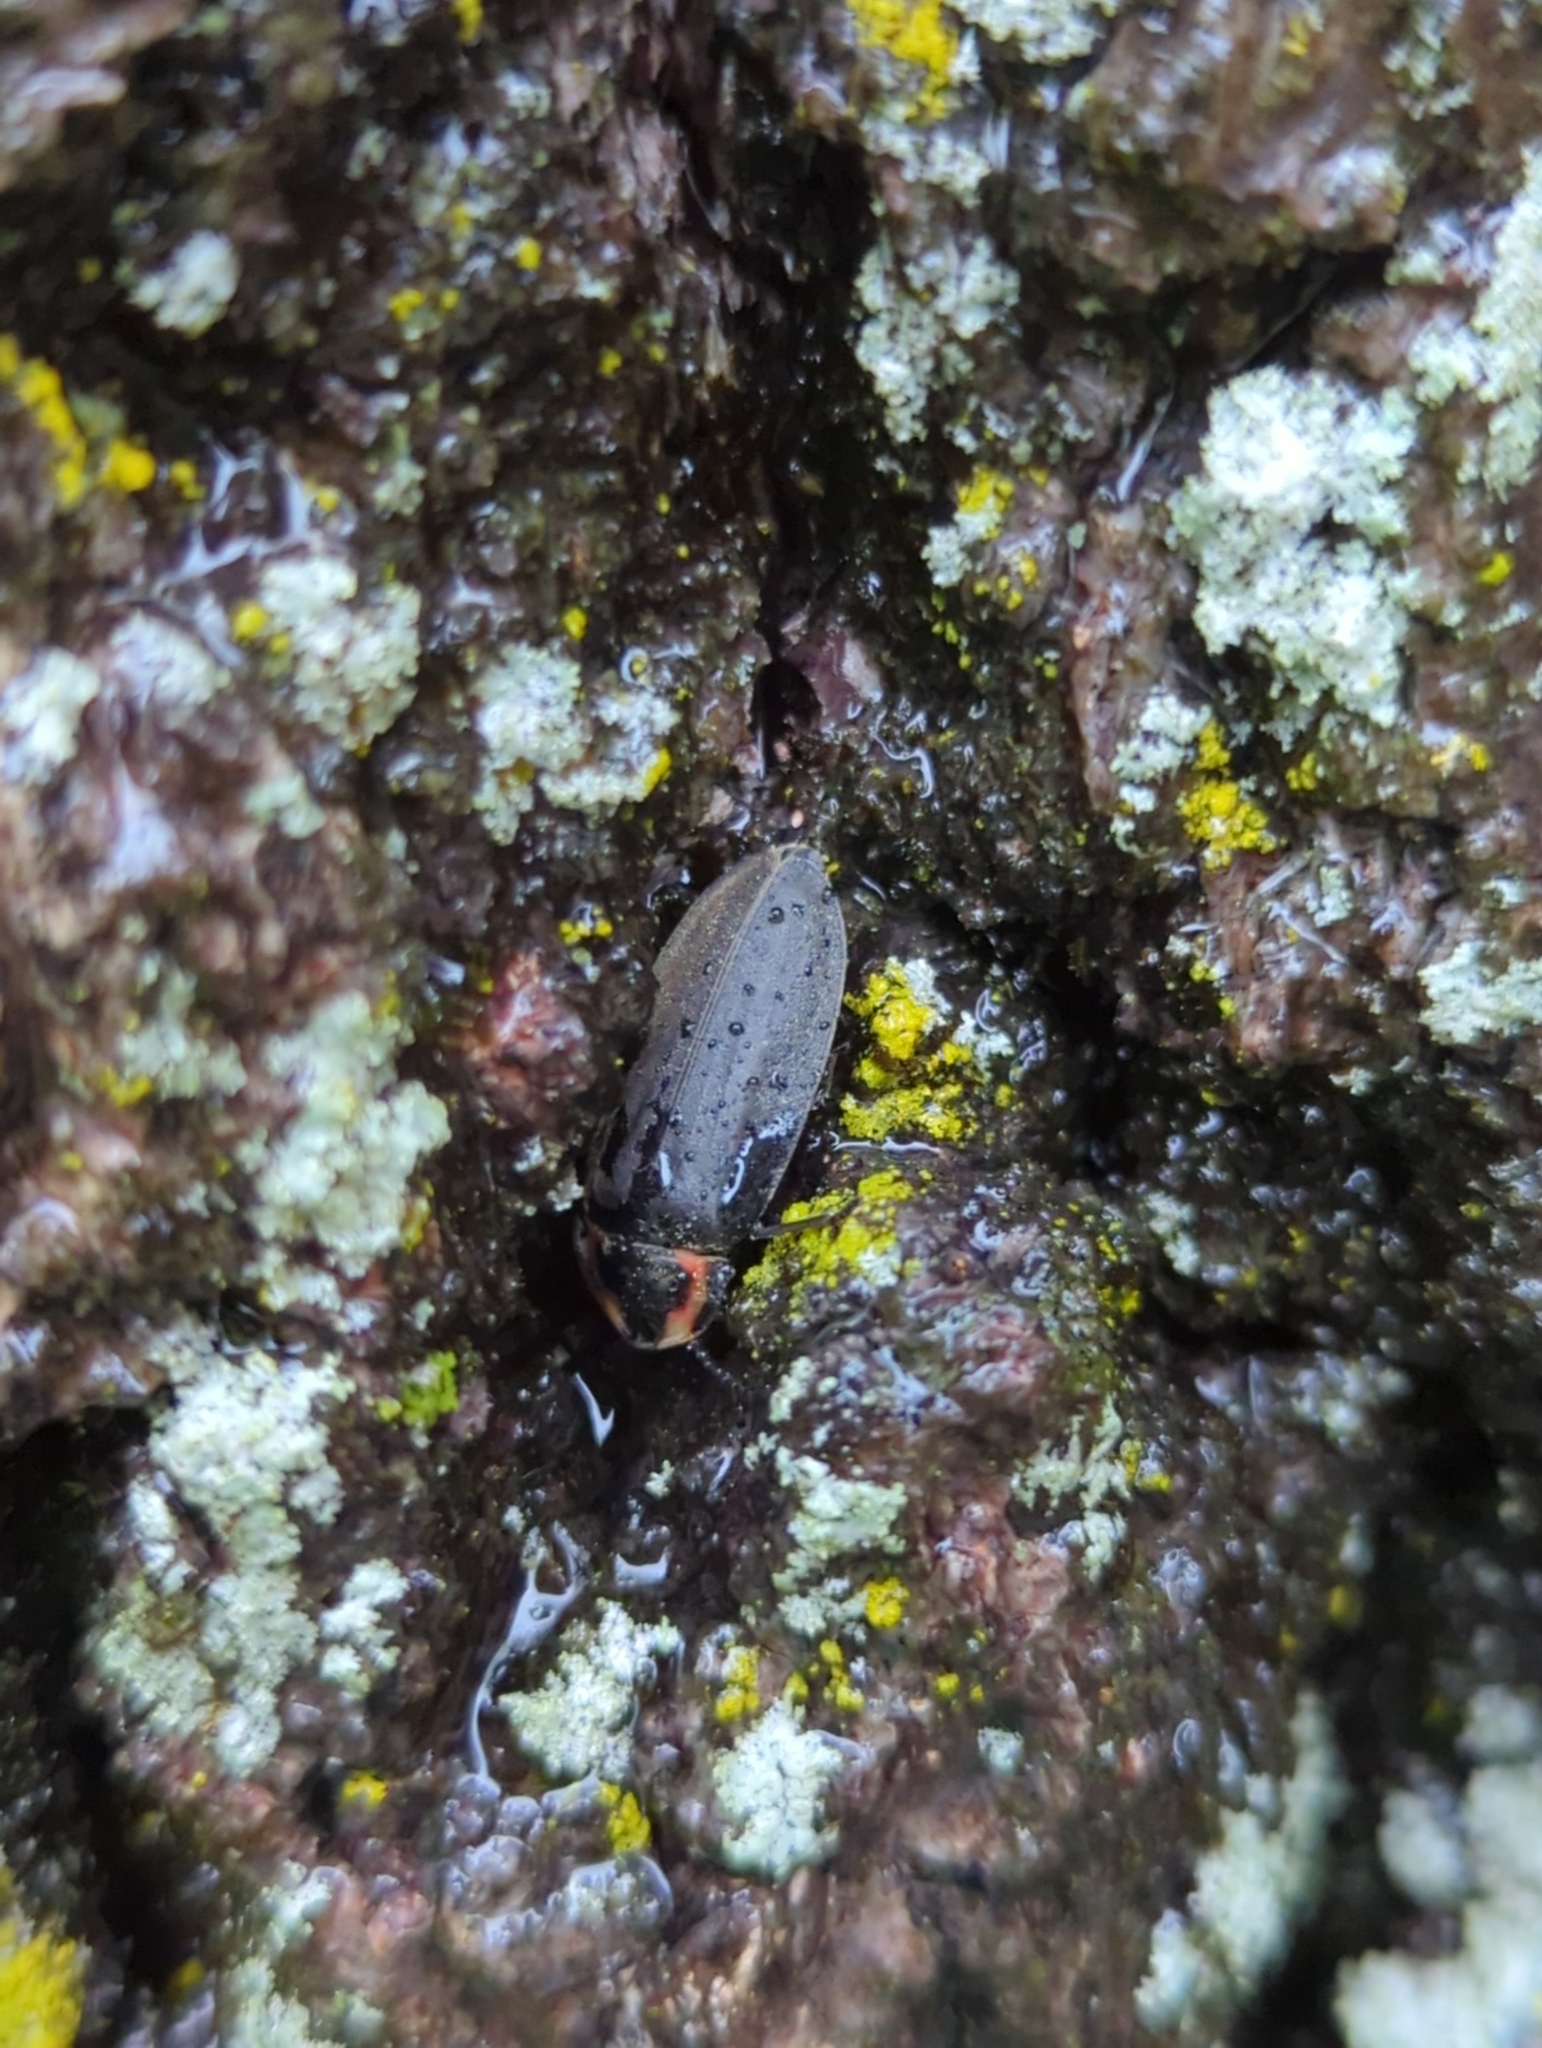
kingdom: Animalia
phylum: Arthropoda
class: Insecta
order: Coleoptera
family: Lampyridae
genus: Photinus
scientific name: Photinus corrusca
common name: Winter firefly
